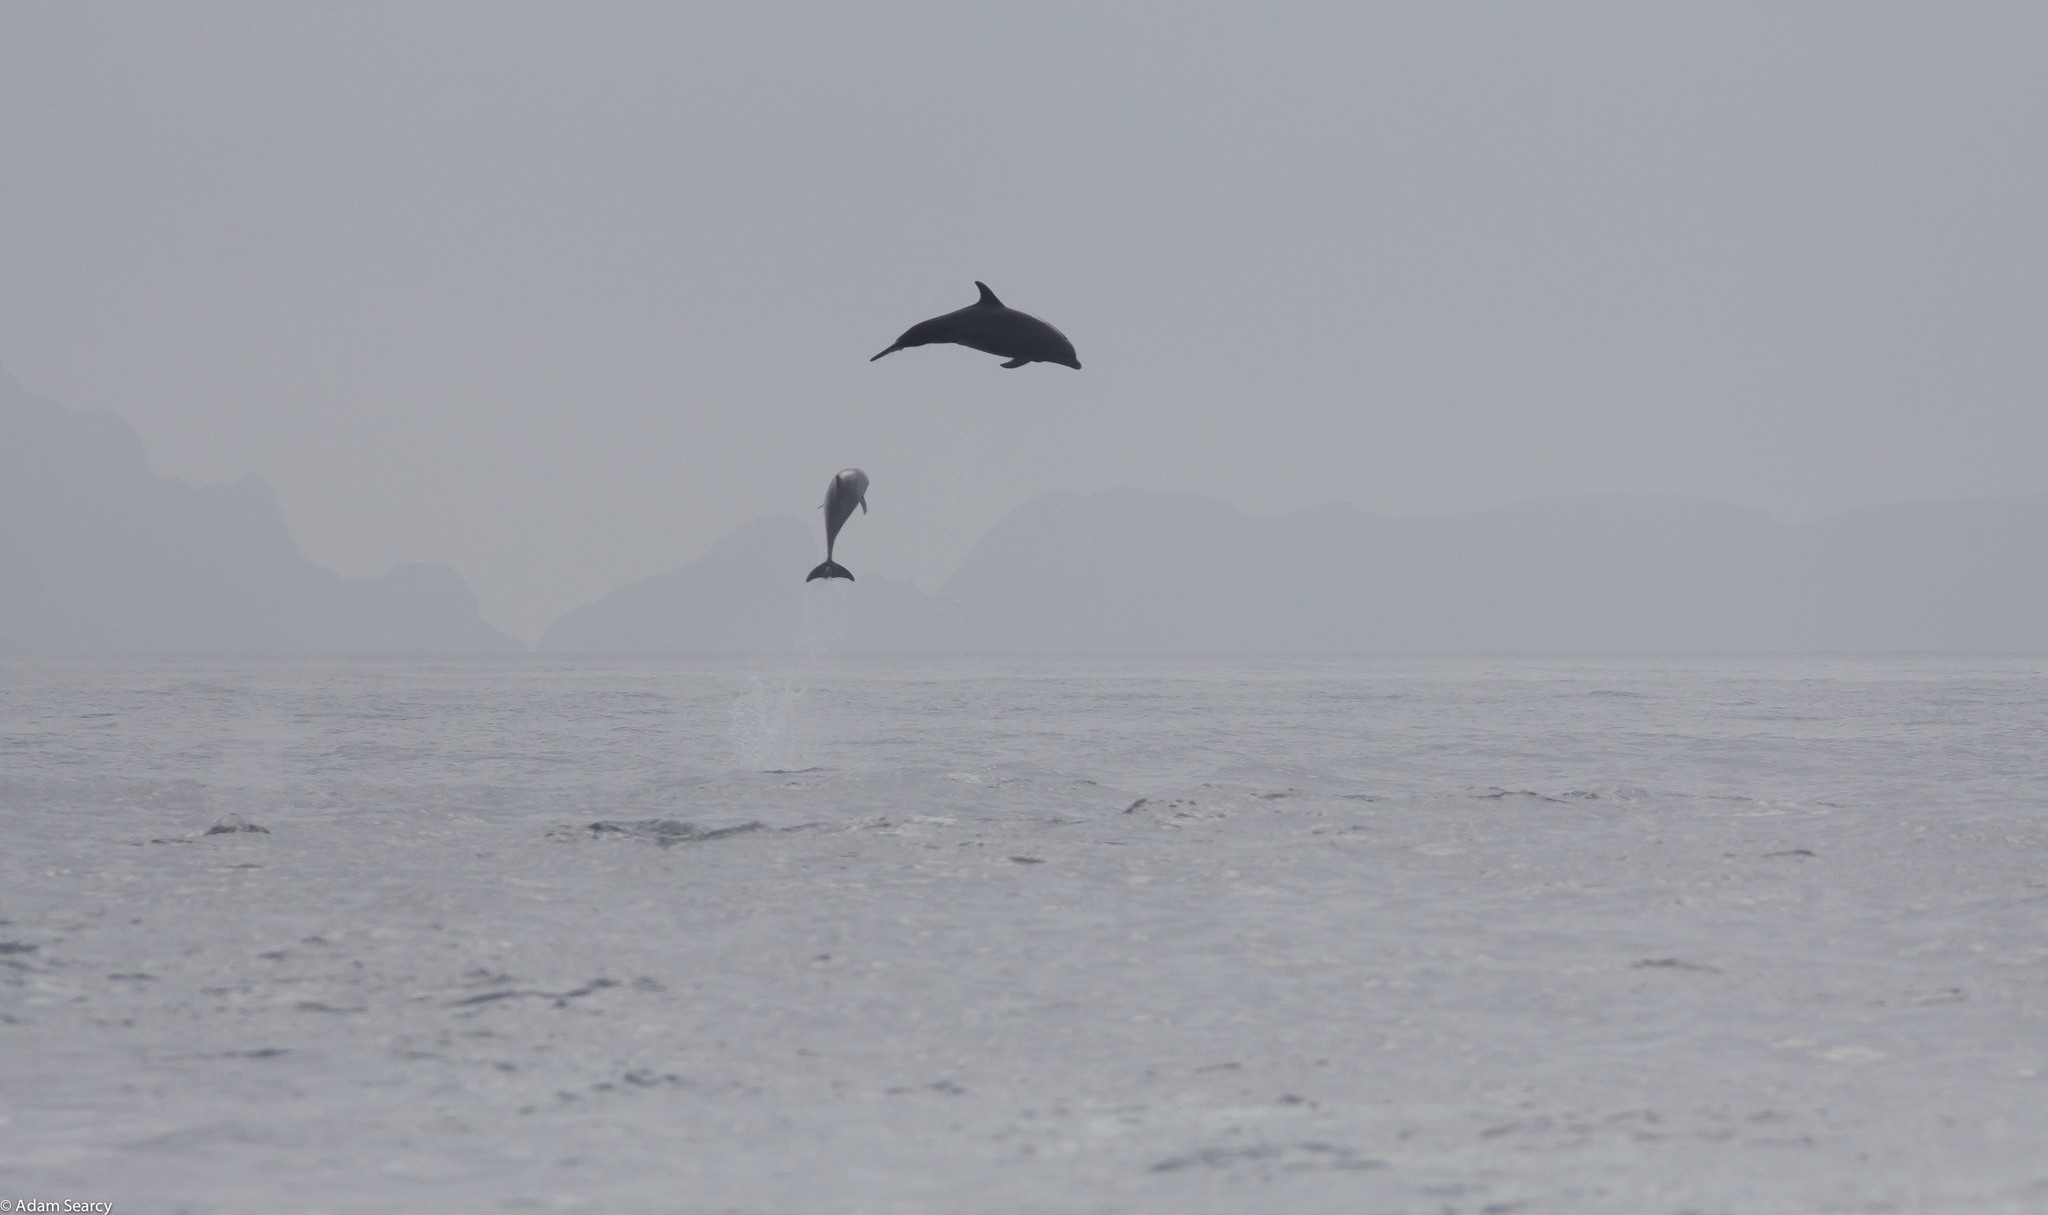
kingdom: Animalia
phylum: Chordata
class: Mammalia
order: Cetacea
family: Delphinidae
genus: Tursiops
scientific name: Tursiops truncatus
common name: Bottlenose dolphin
